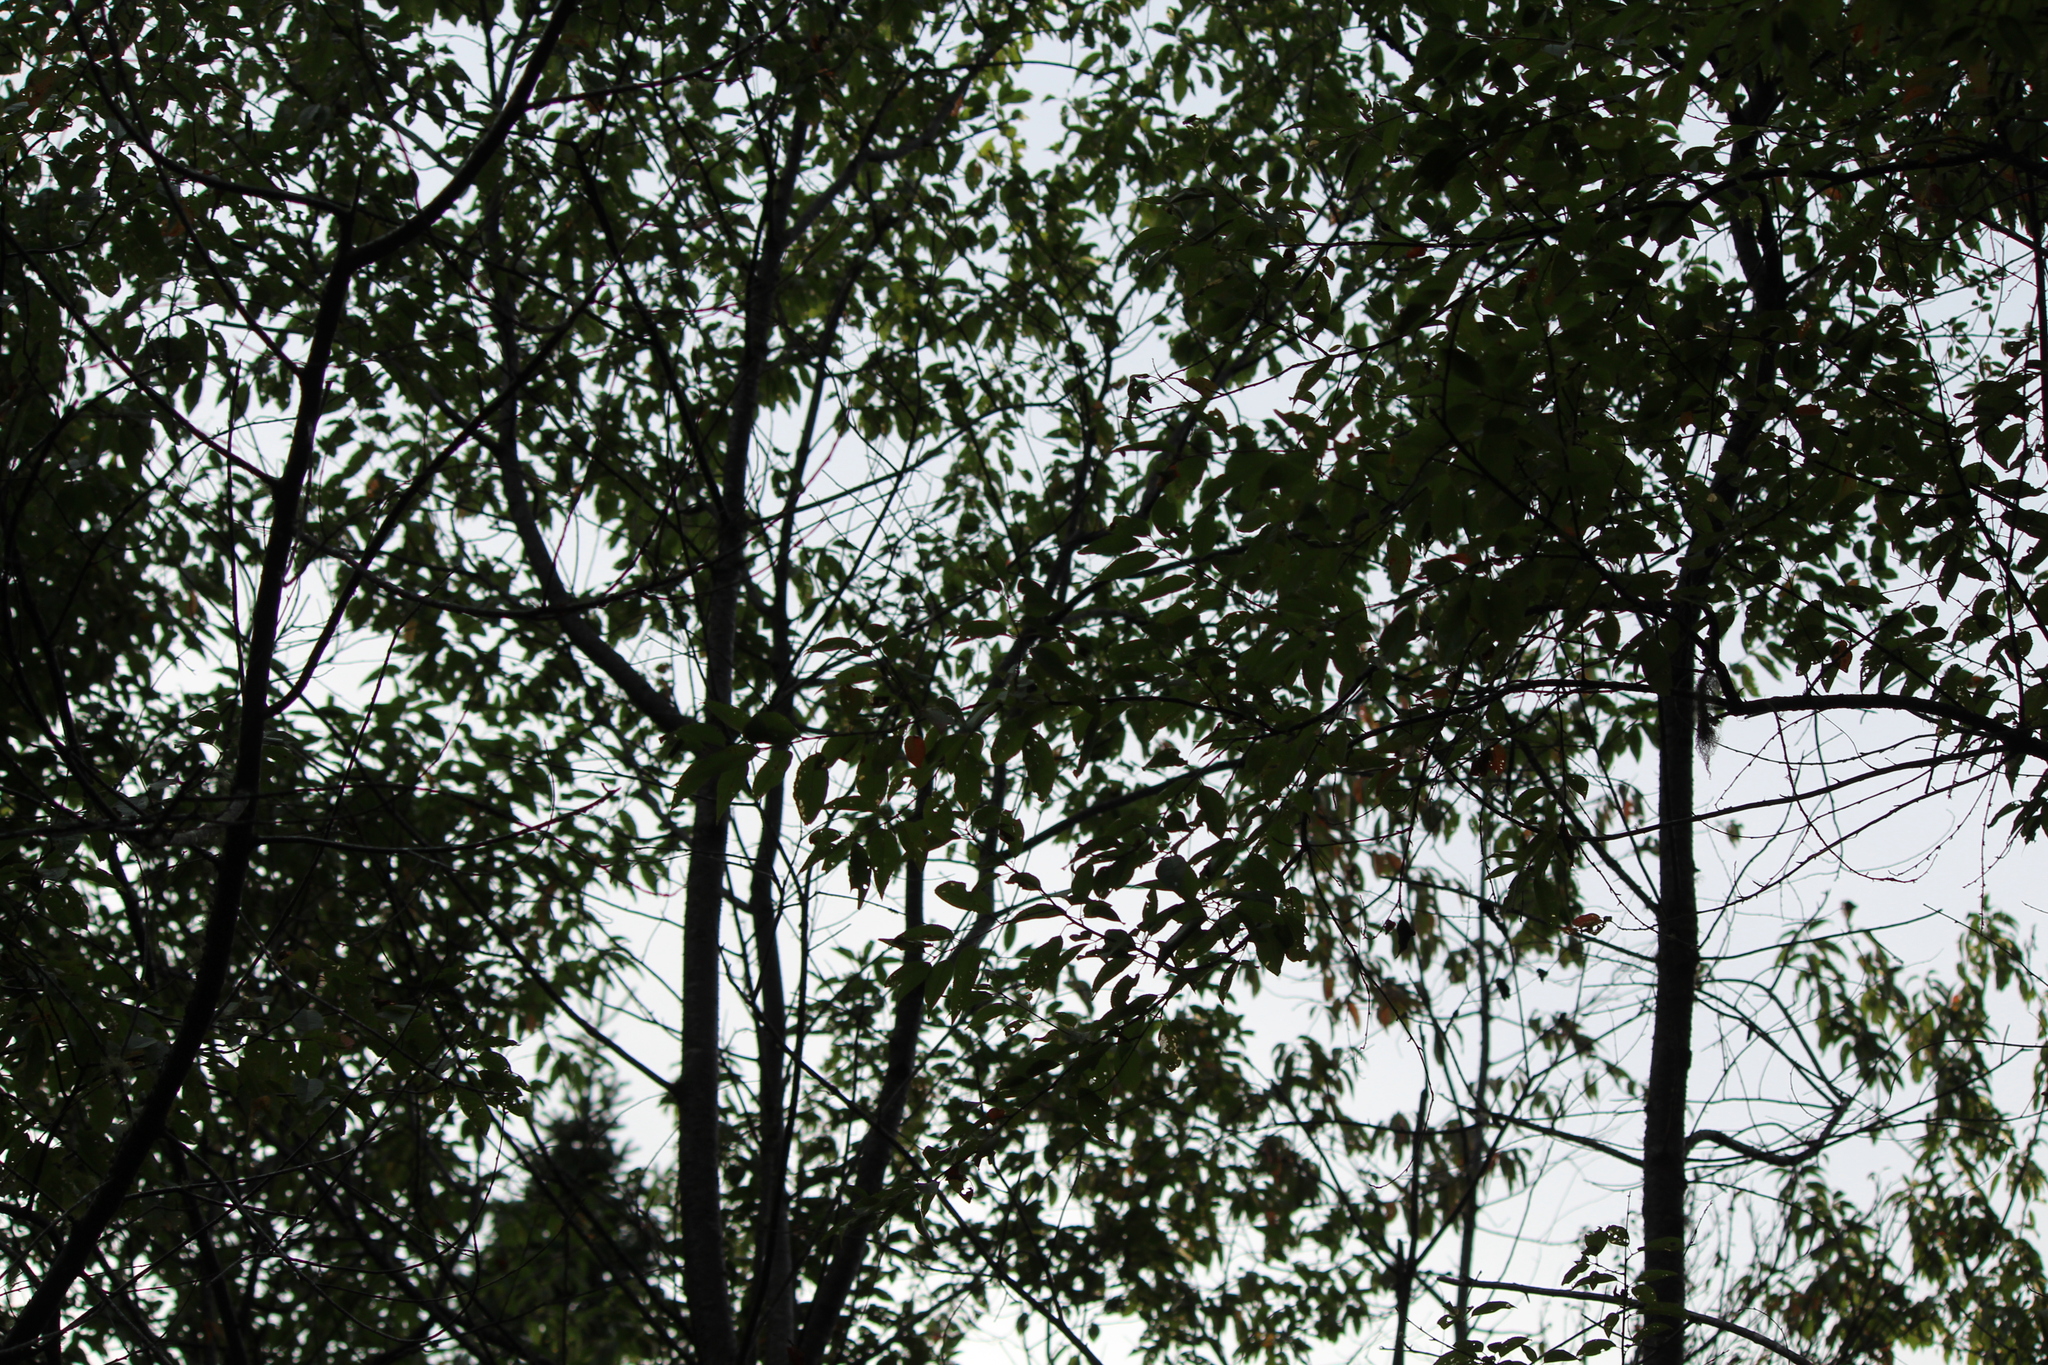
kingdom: Plantae
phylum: Tracheophyta
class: Magnoliopsida
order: Rosales
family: Rosaceae
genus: Prunus
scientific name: Prunus pensylvanica
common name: Pin cherry
